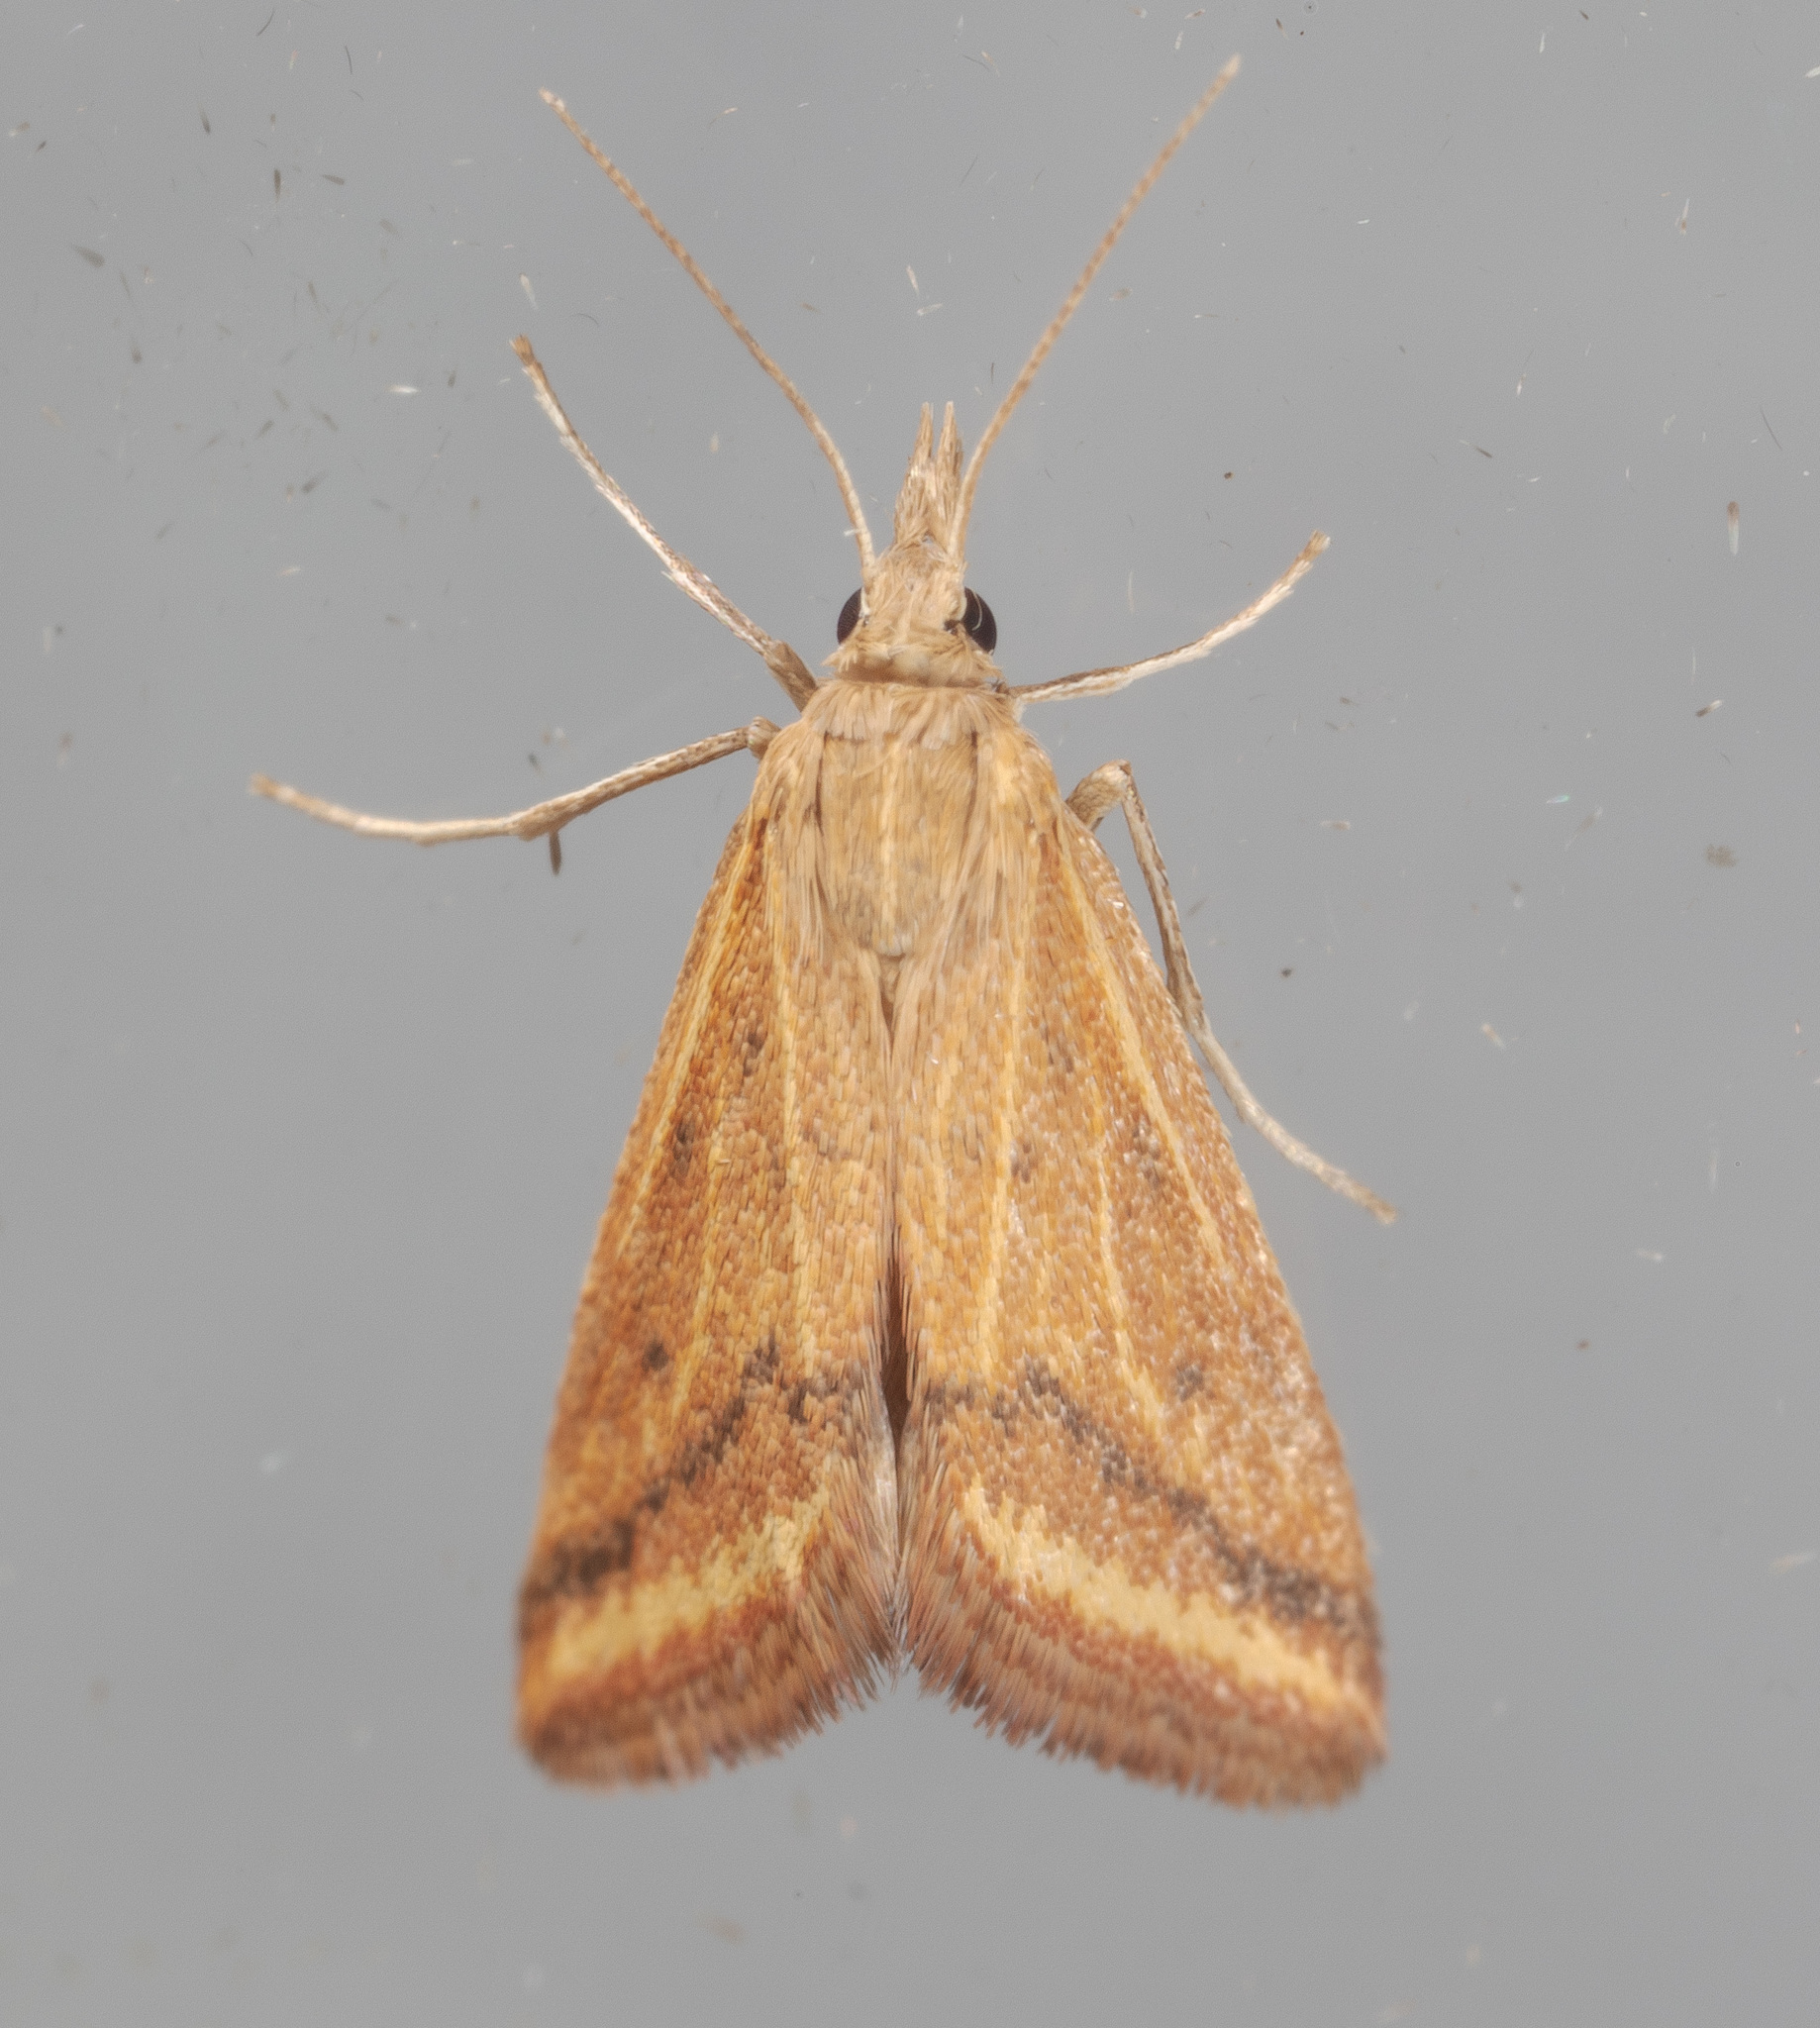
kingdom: Animalia
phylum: Arthropoda
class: Insecta
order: Lepidoptera
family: Crambidae
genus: Microtheoris
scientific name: Microtheoris ophionalis
